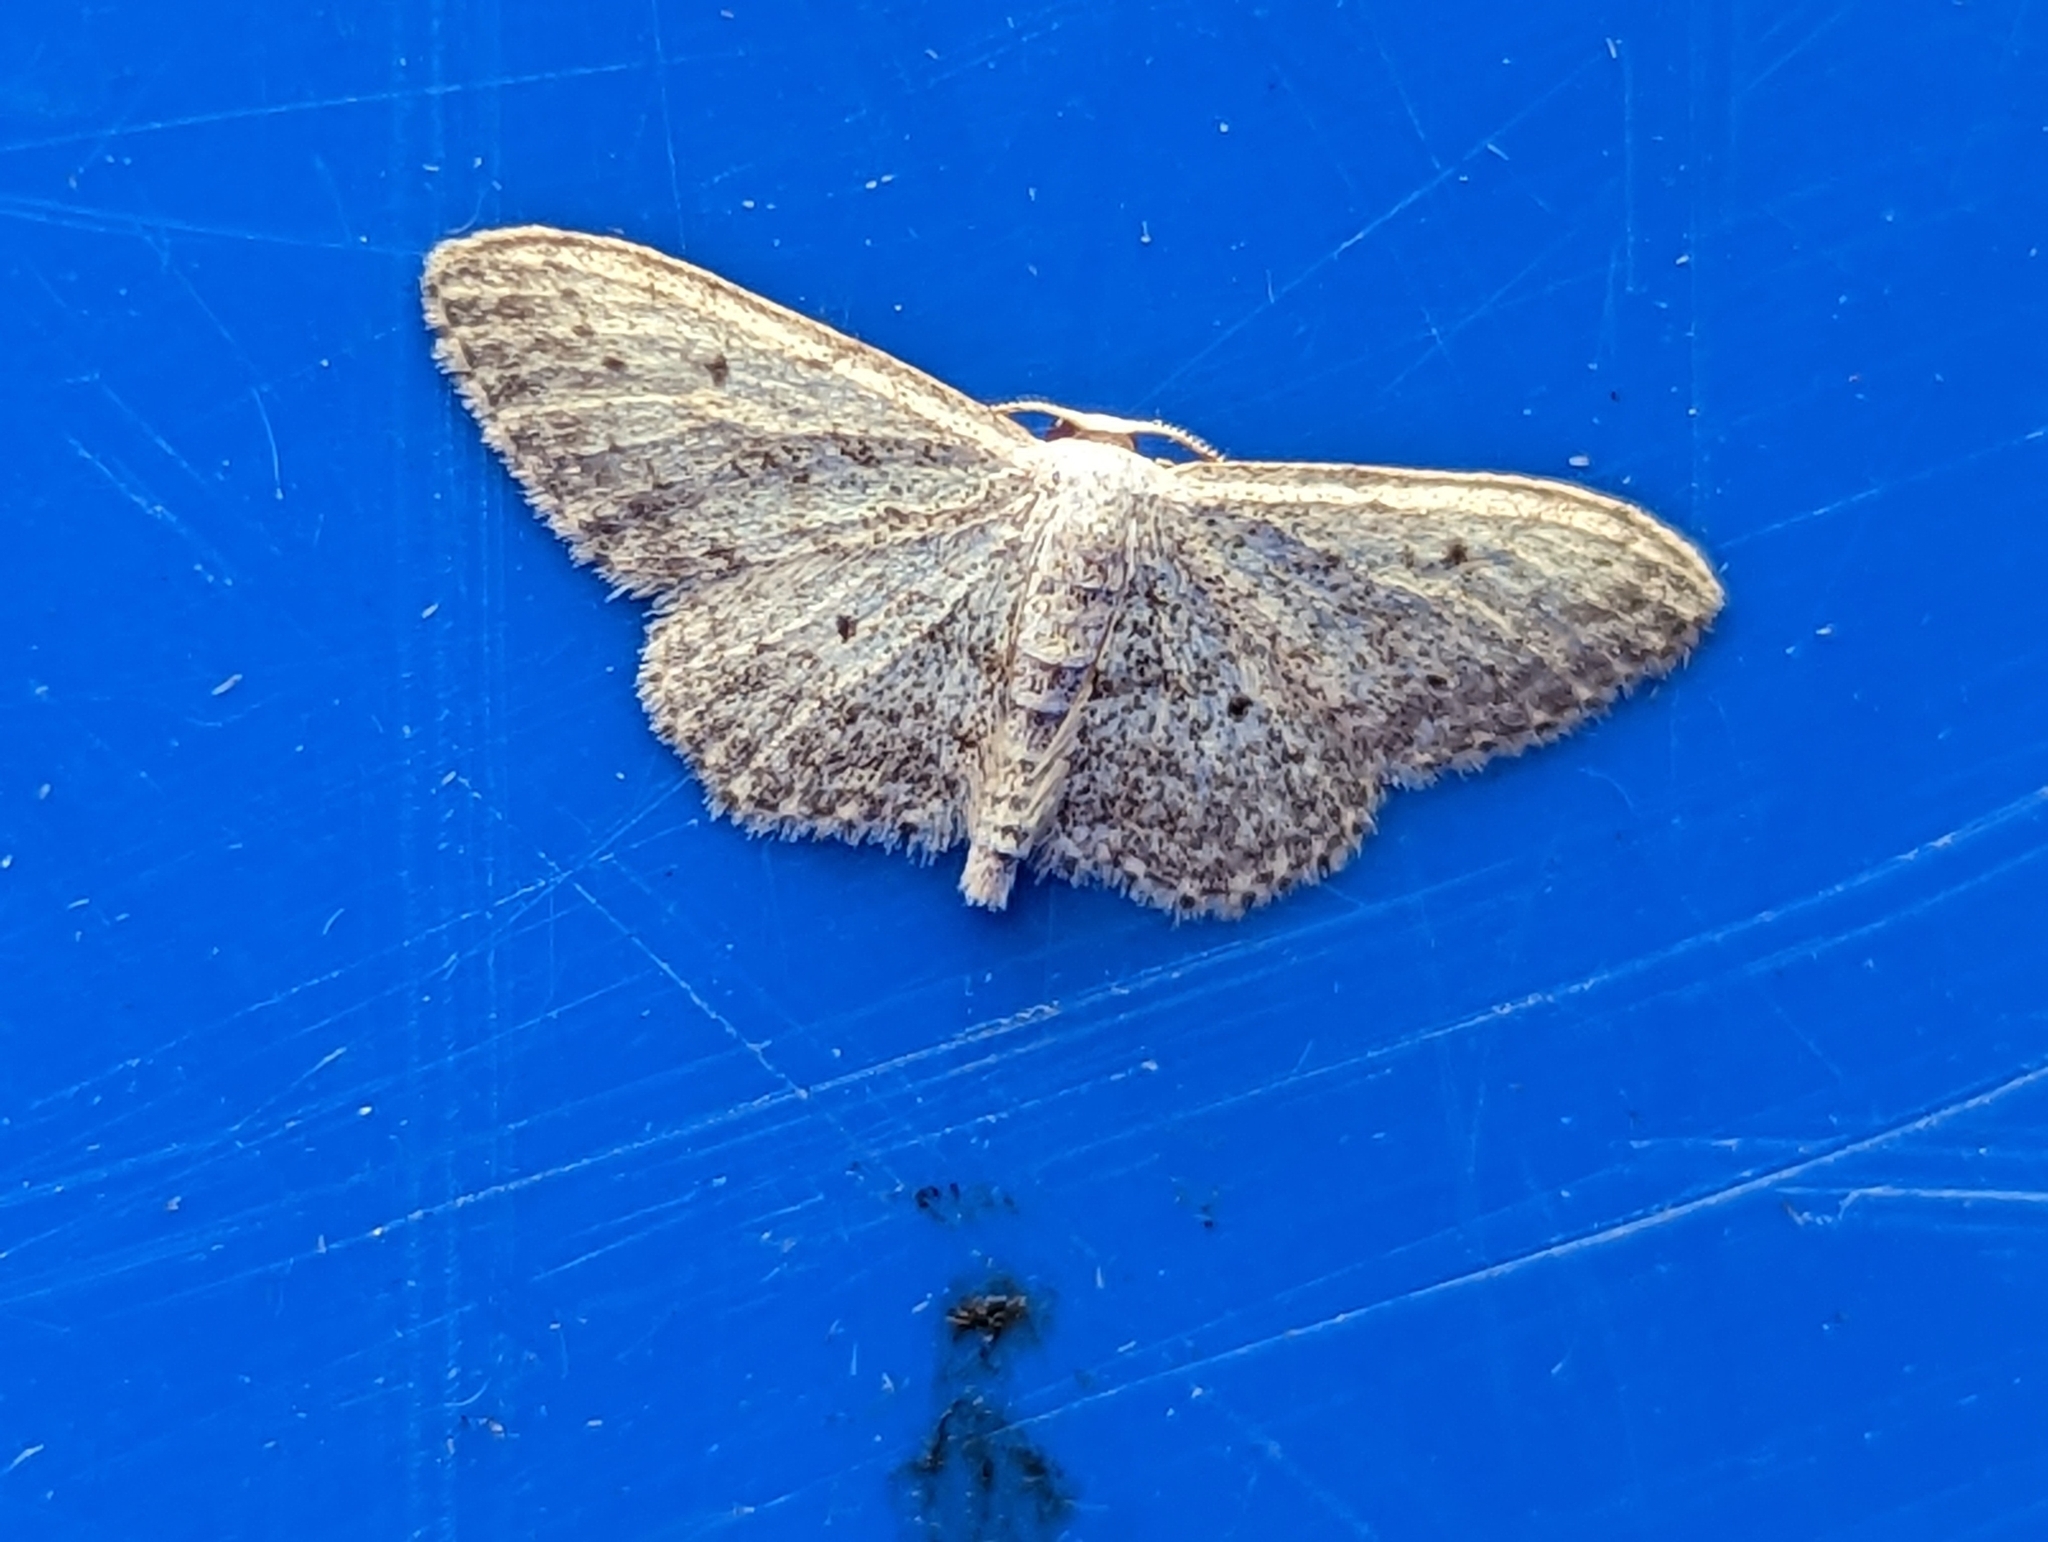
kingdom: Animalia
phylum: Arthropoda
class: Insecta
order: Lepidoptera
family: Geometridae
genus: Idaea
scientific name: Idaea seriata
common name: Small dusty wave
